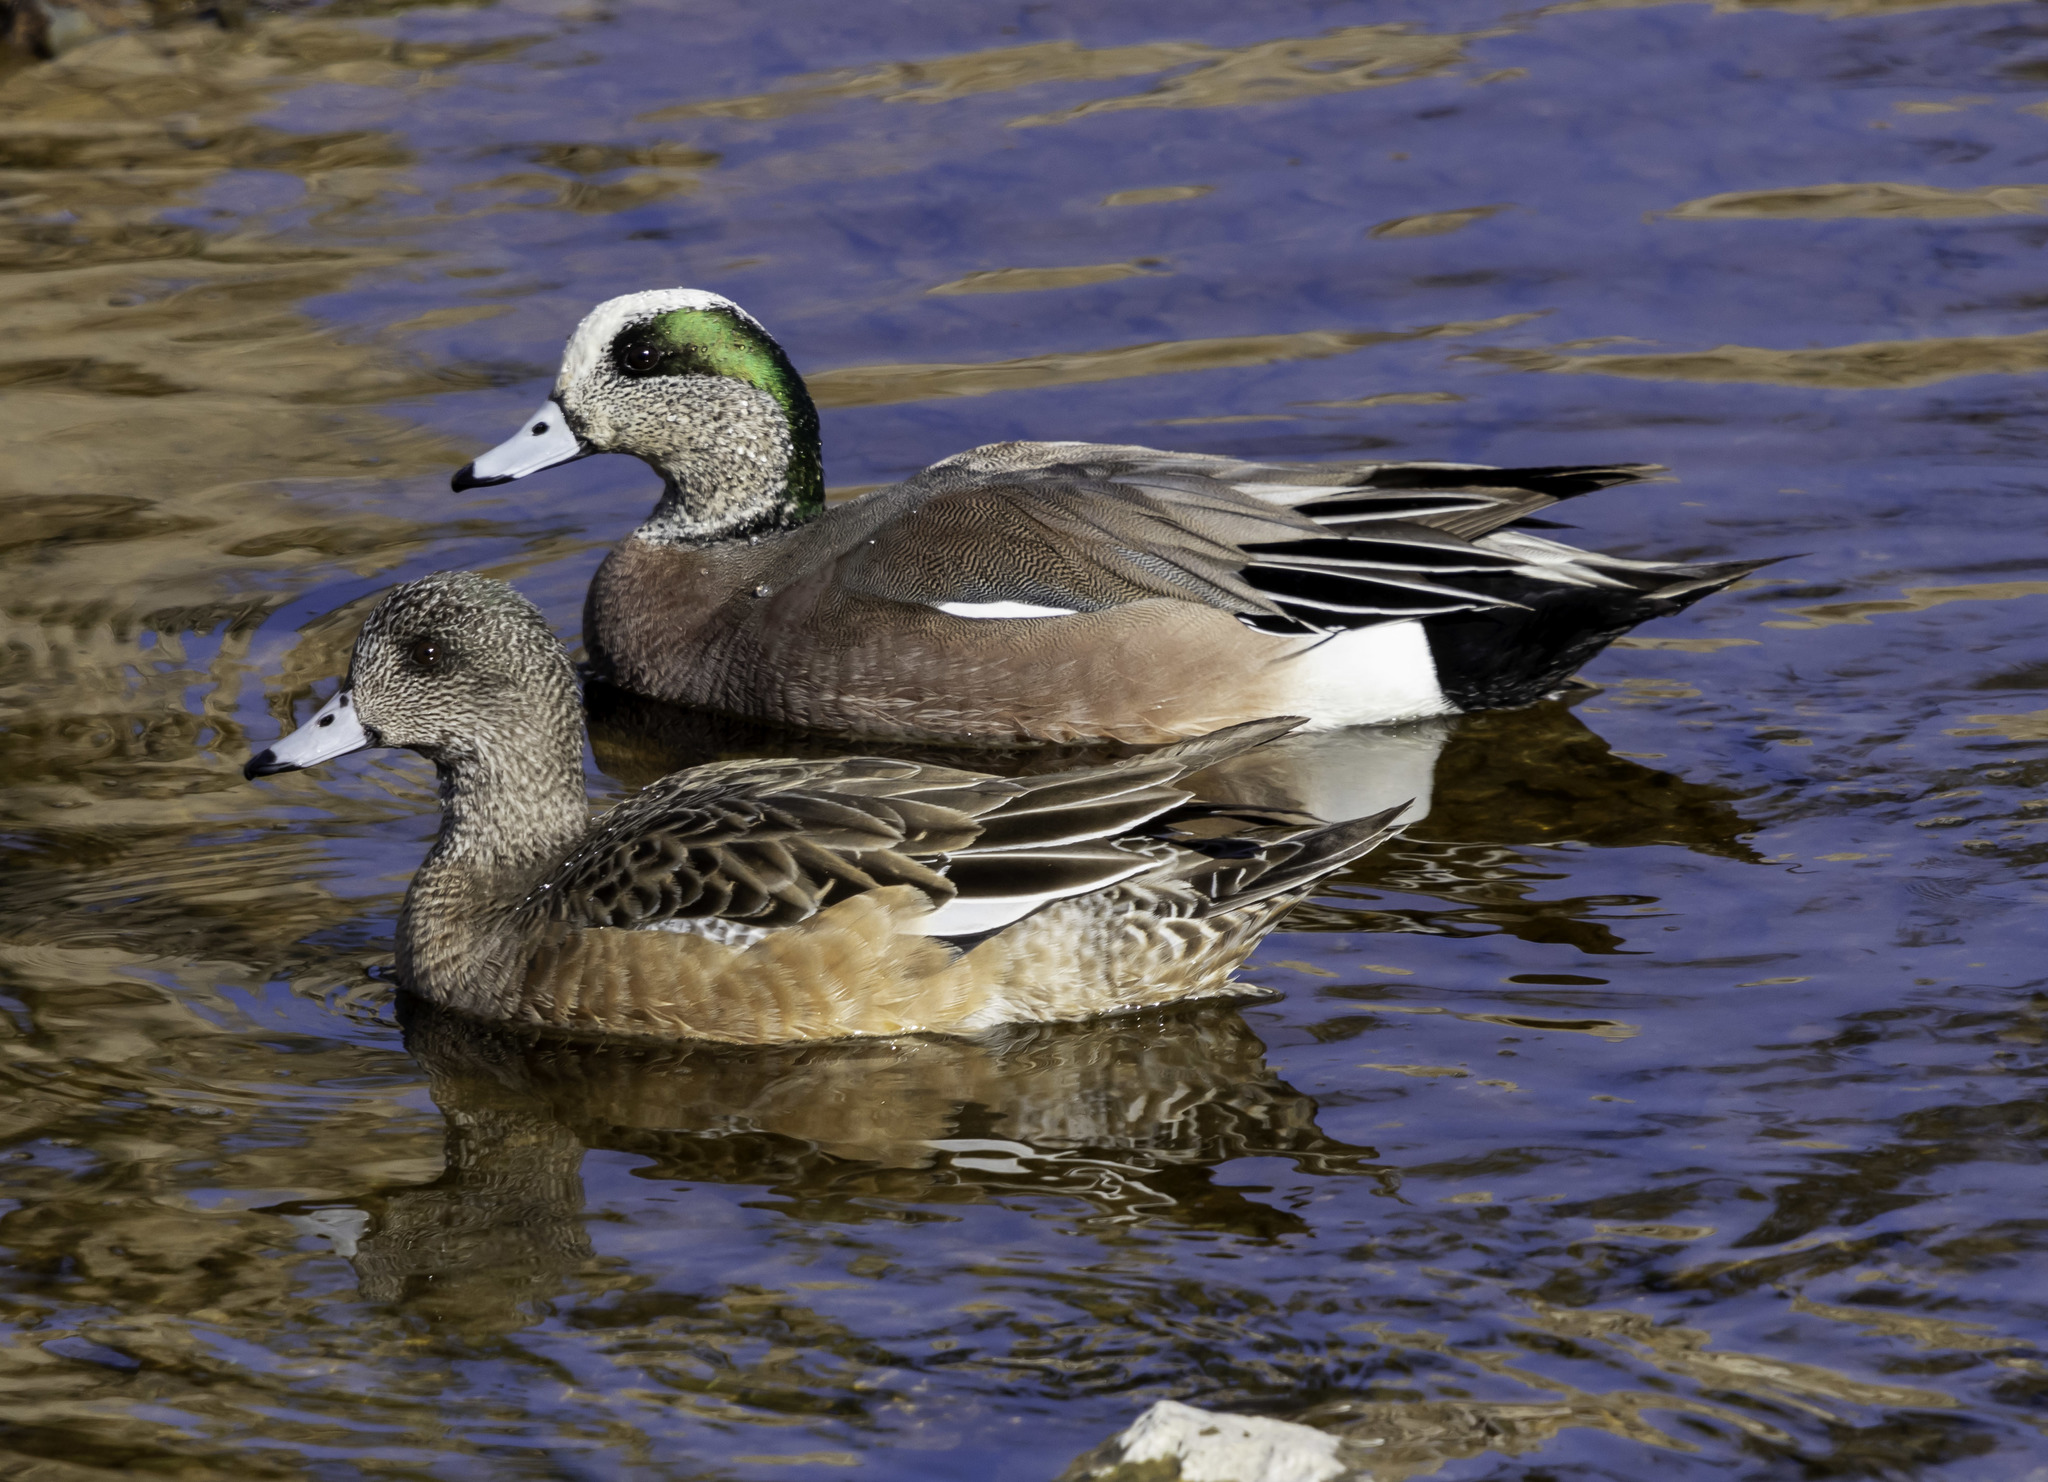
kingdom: Animalia
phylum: Chordata
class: Aves
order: Anseriformes
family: Anatidae
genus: Mareca
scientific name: Mareca americana
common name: American wigeon
